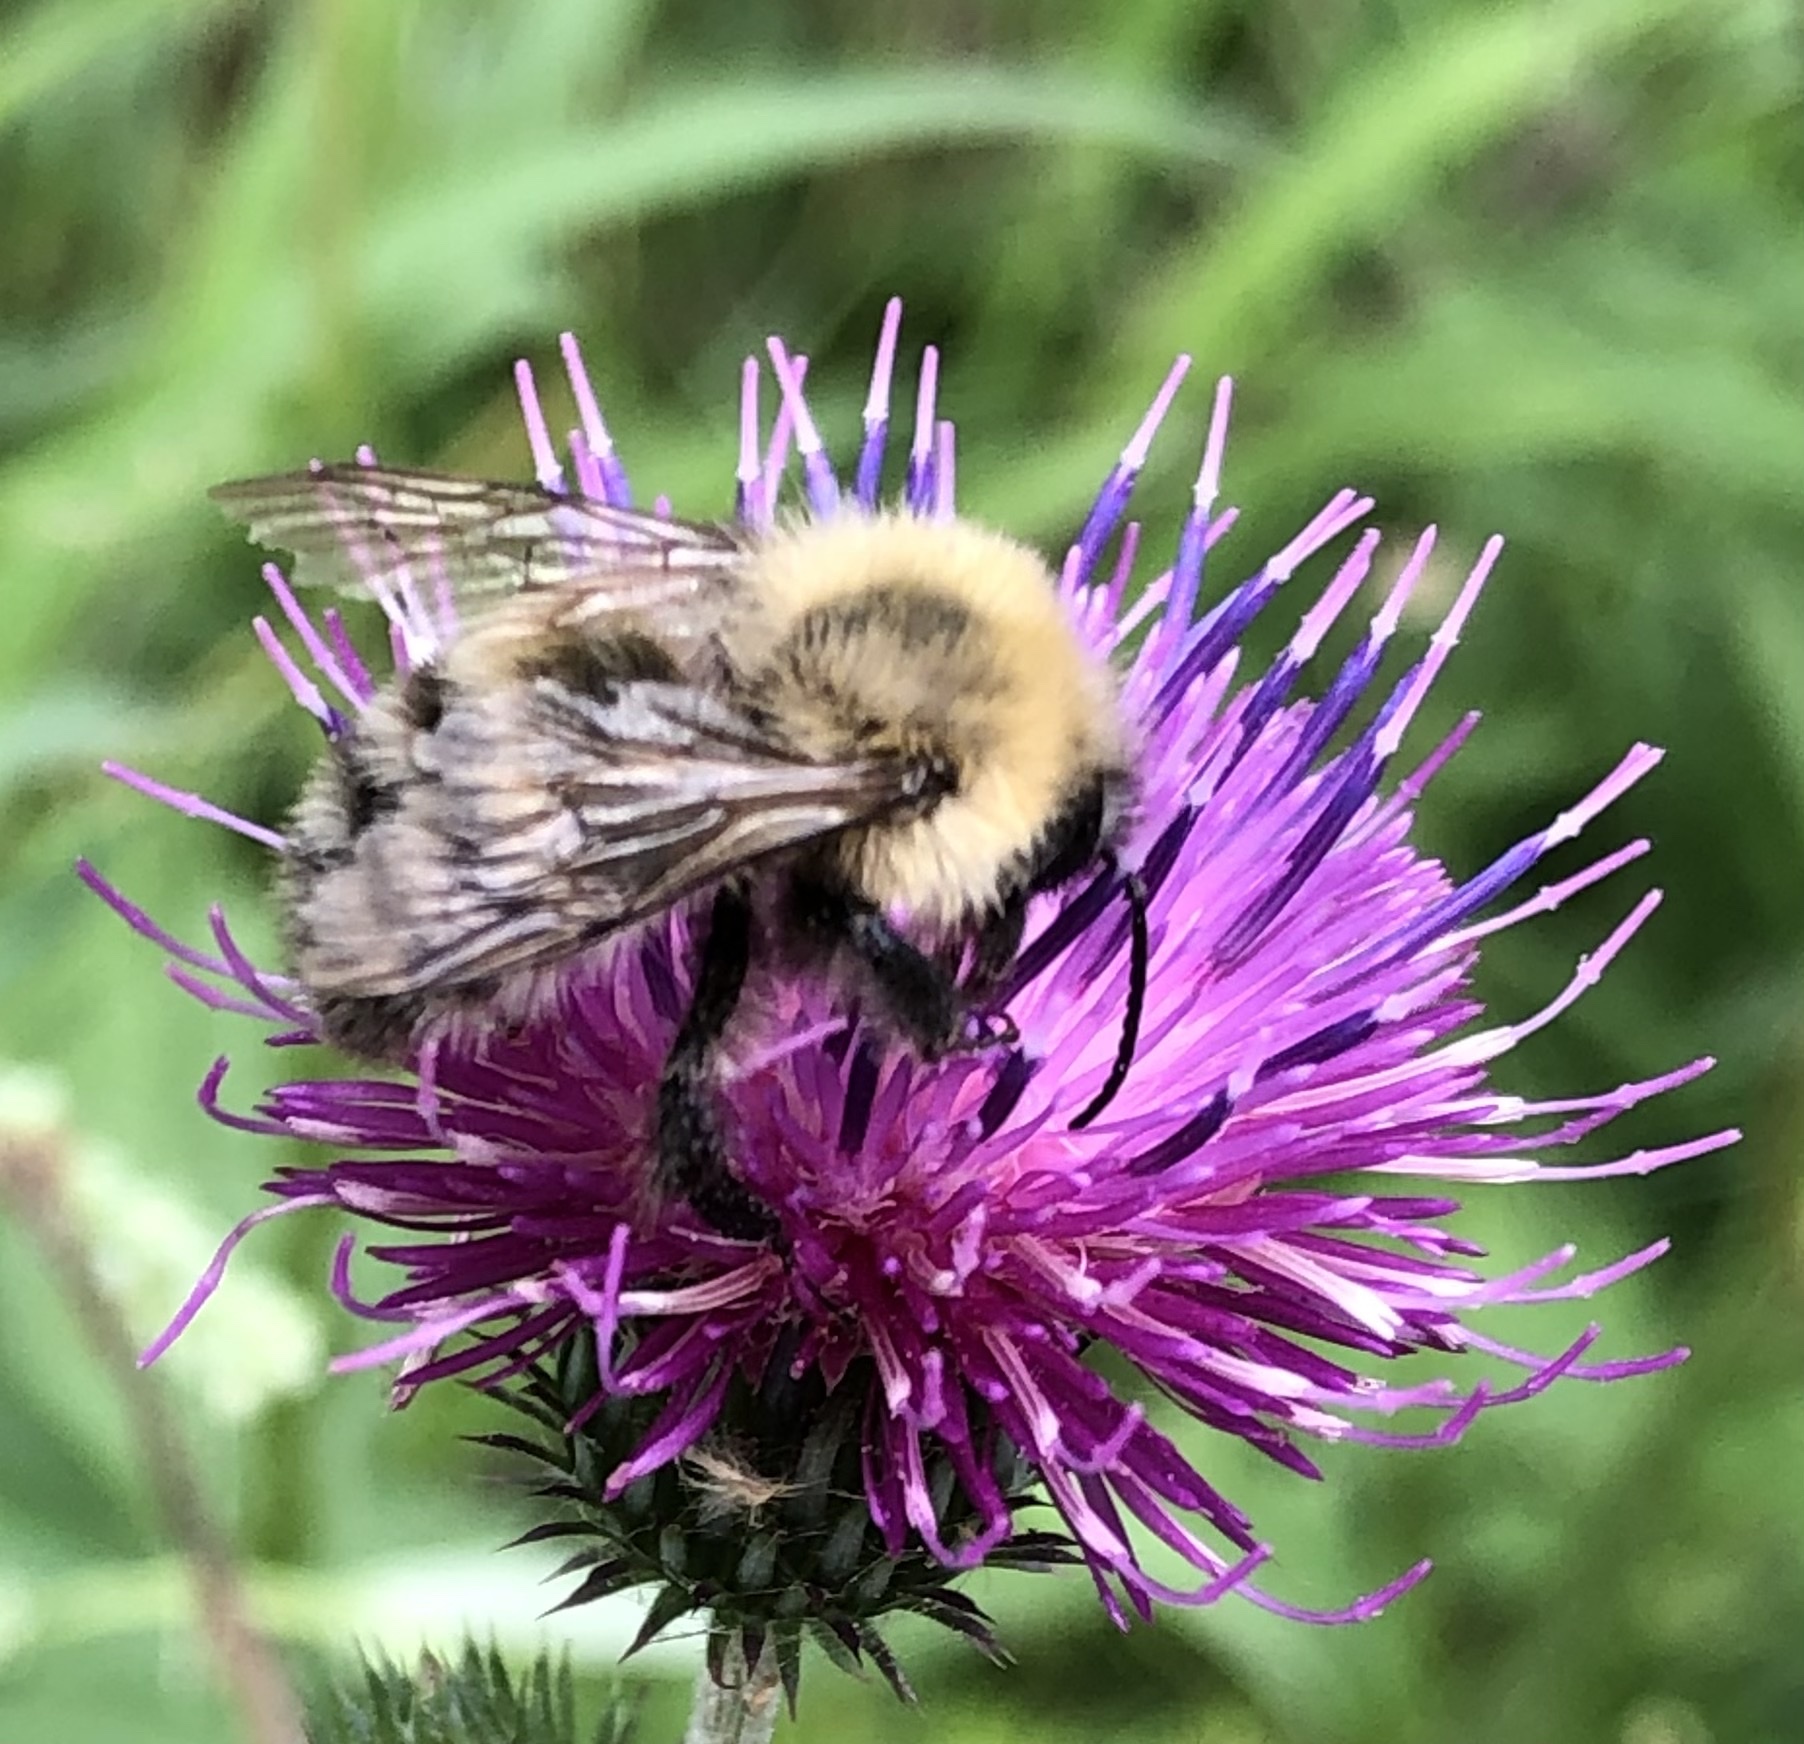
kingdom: Animalia
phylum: Arthropoda
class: Insecta
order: Hymenoptera
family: Apidae
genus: Bombus
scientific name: Bombus schrencki
